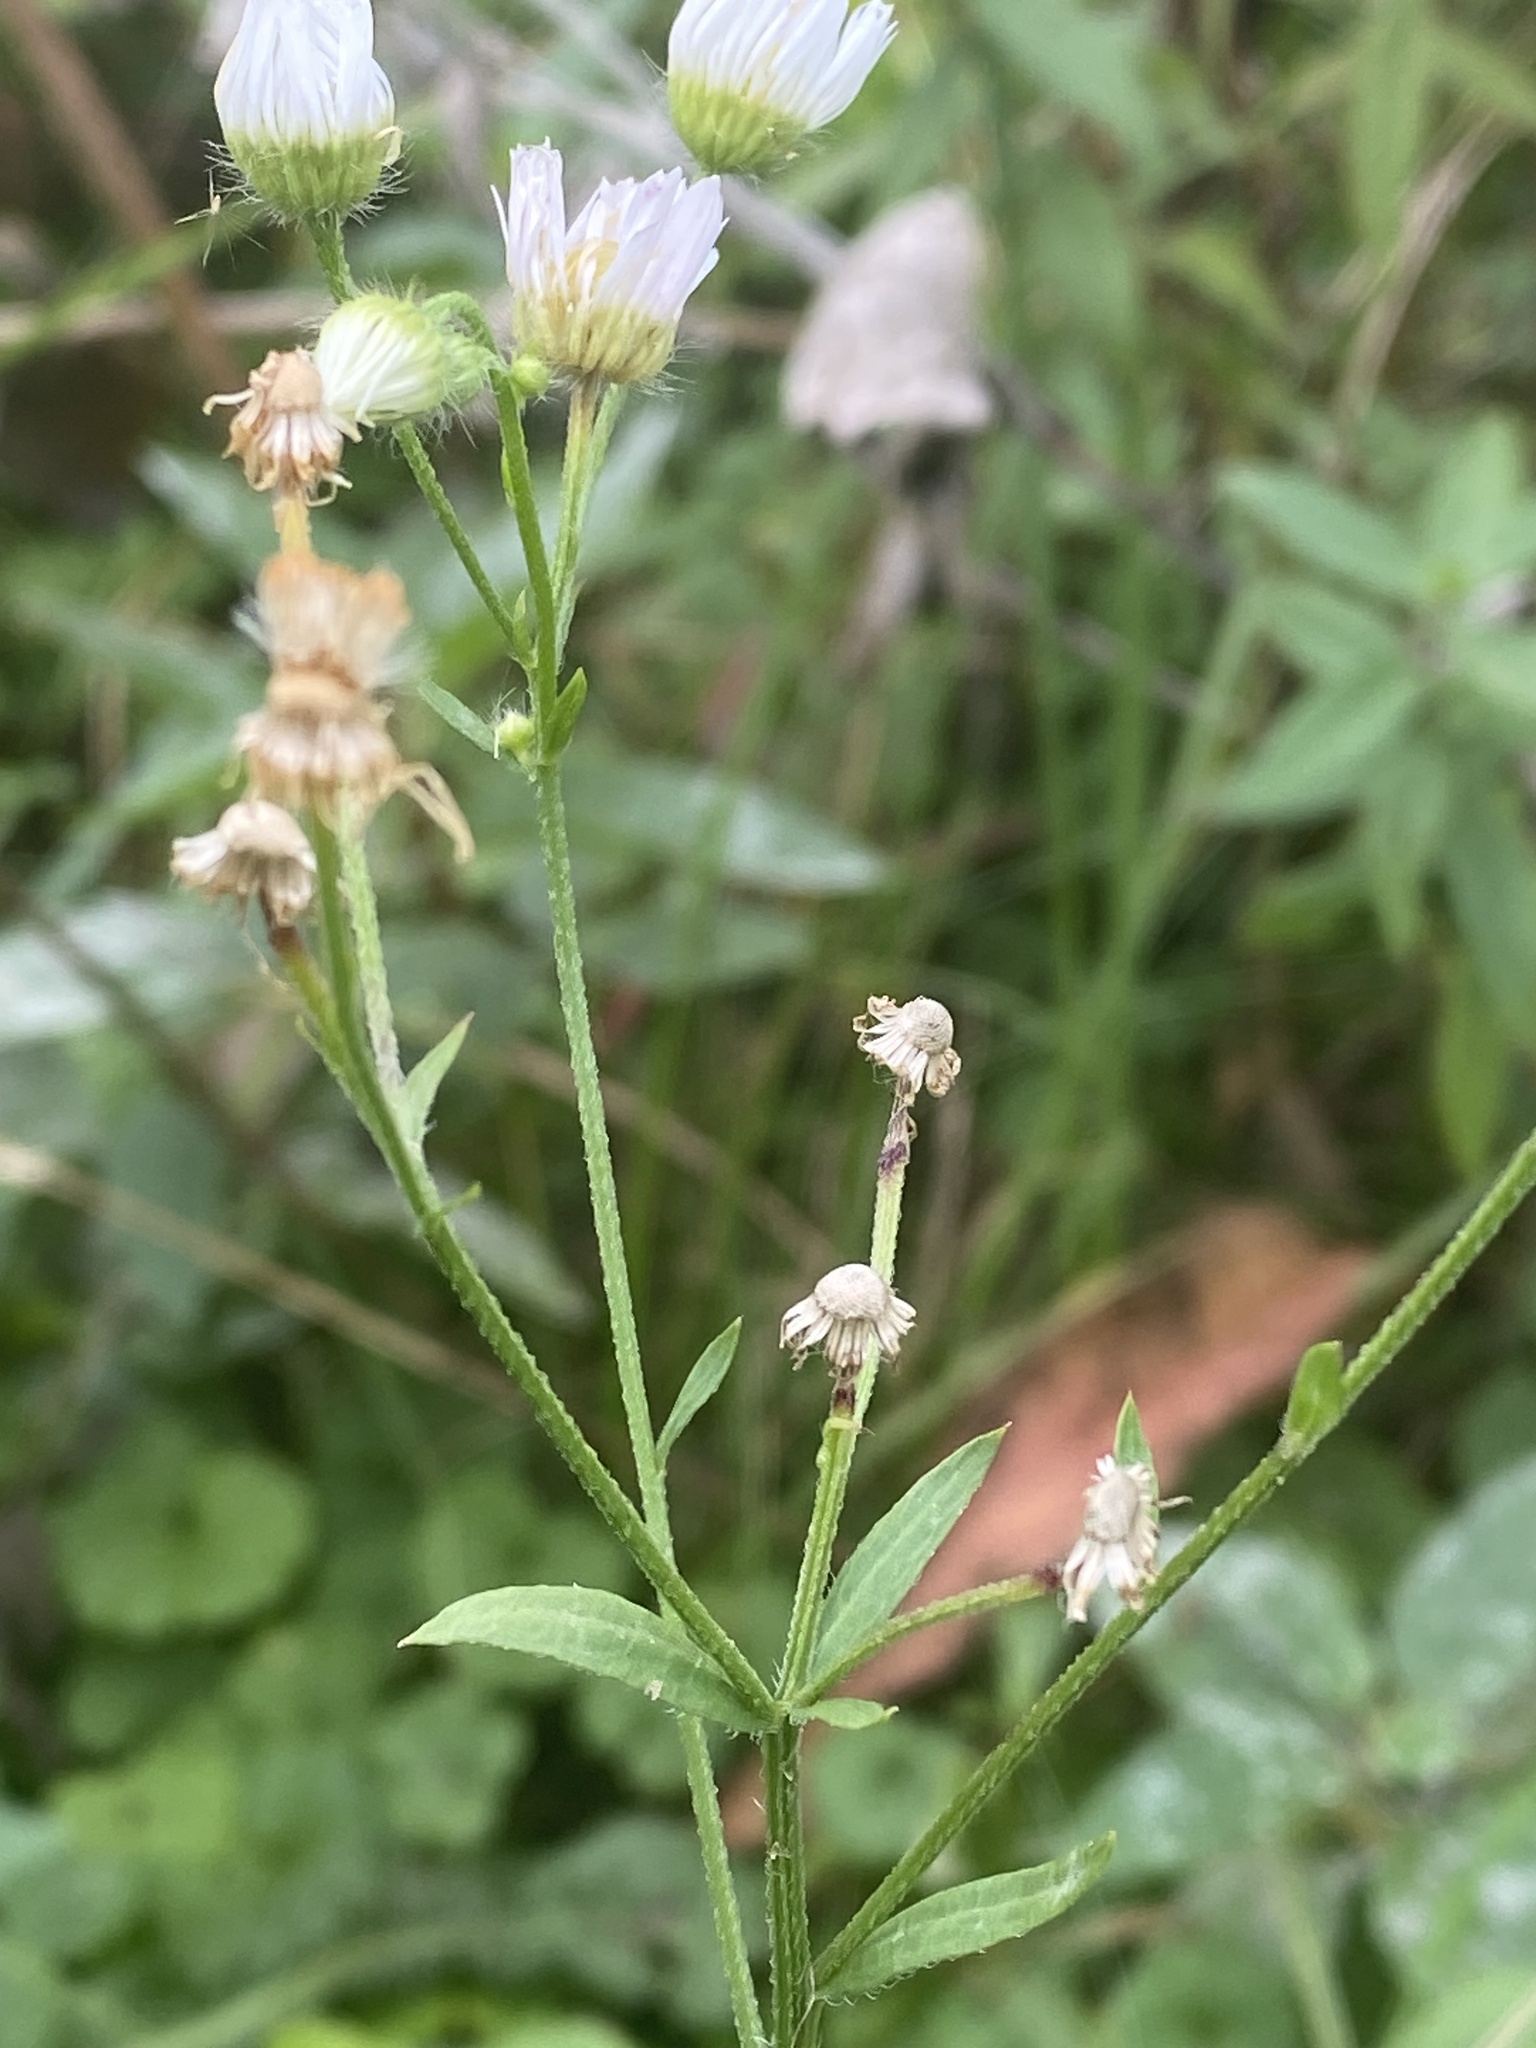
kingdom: Plantae
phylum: Tracheophyta
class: Magnoliopsida
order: Asterales
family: Asteraceae
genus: Erigeron
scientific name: Erigeron strigosus
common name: Common eastern fleabane
